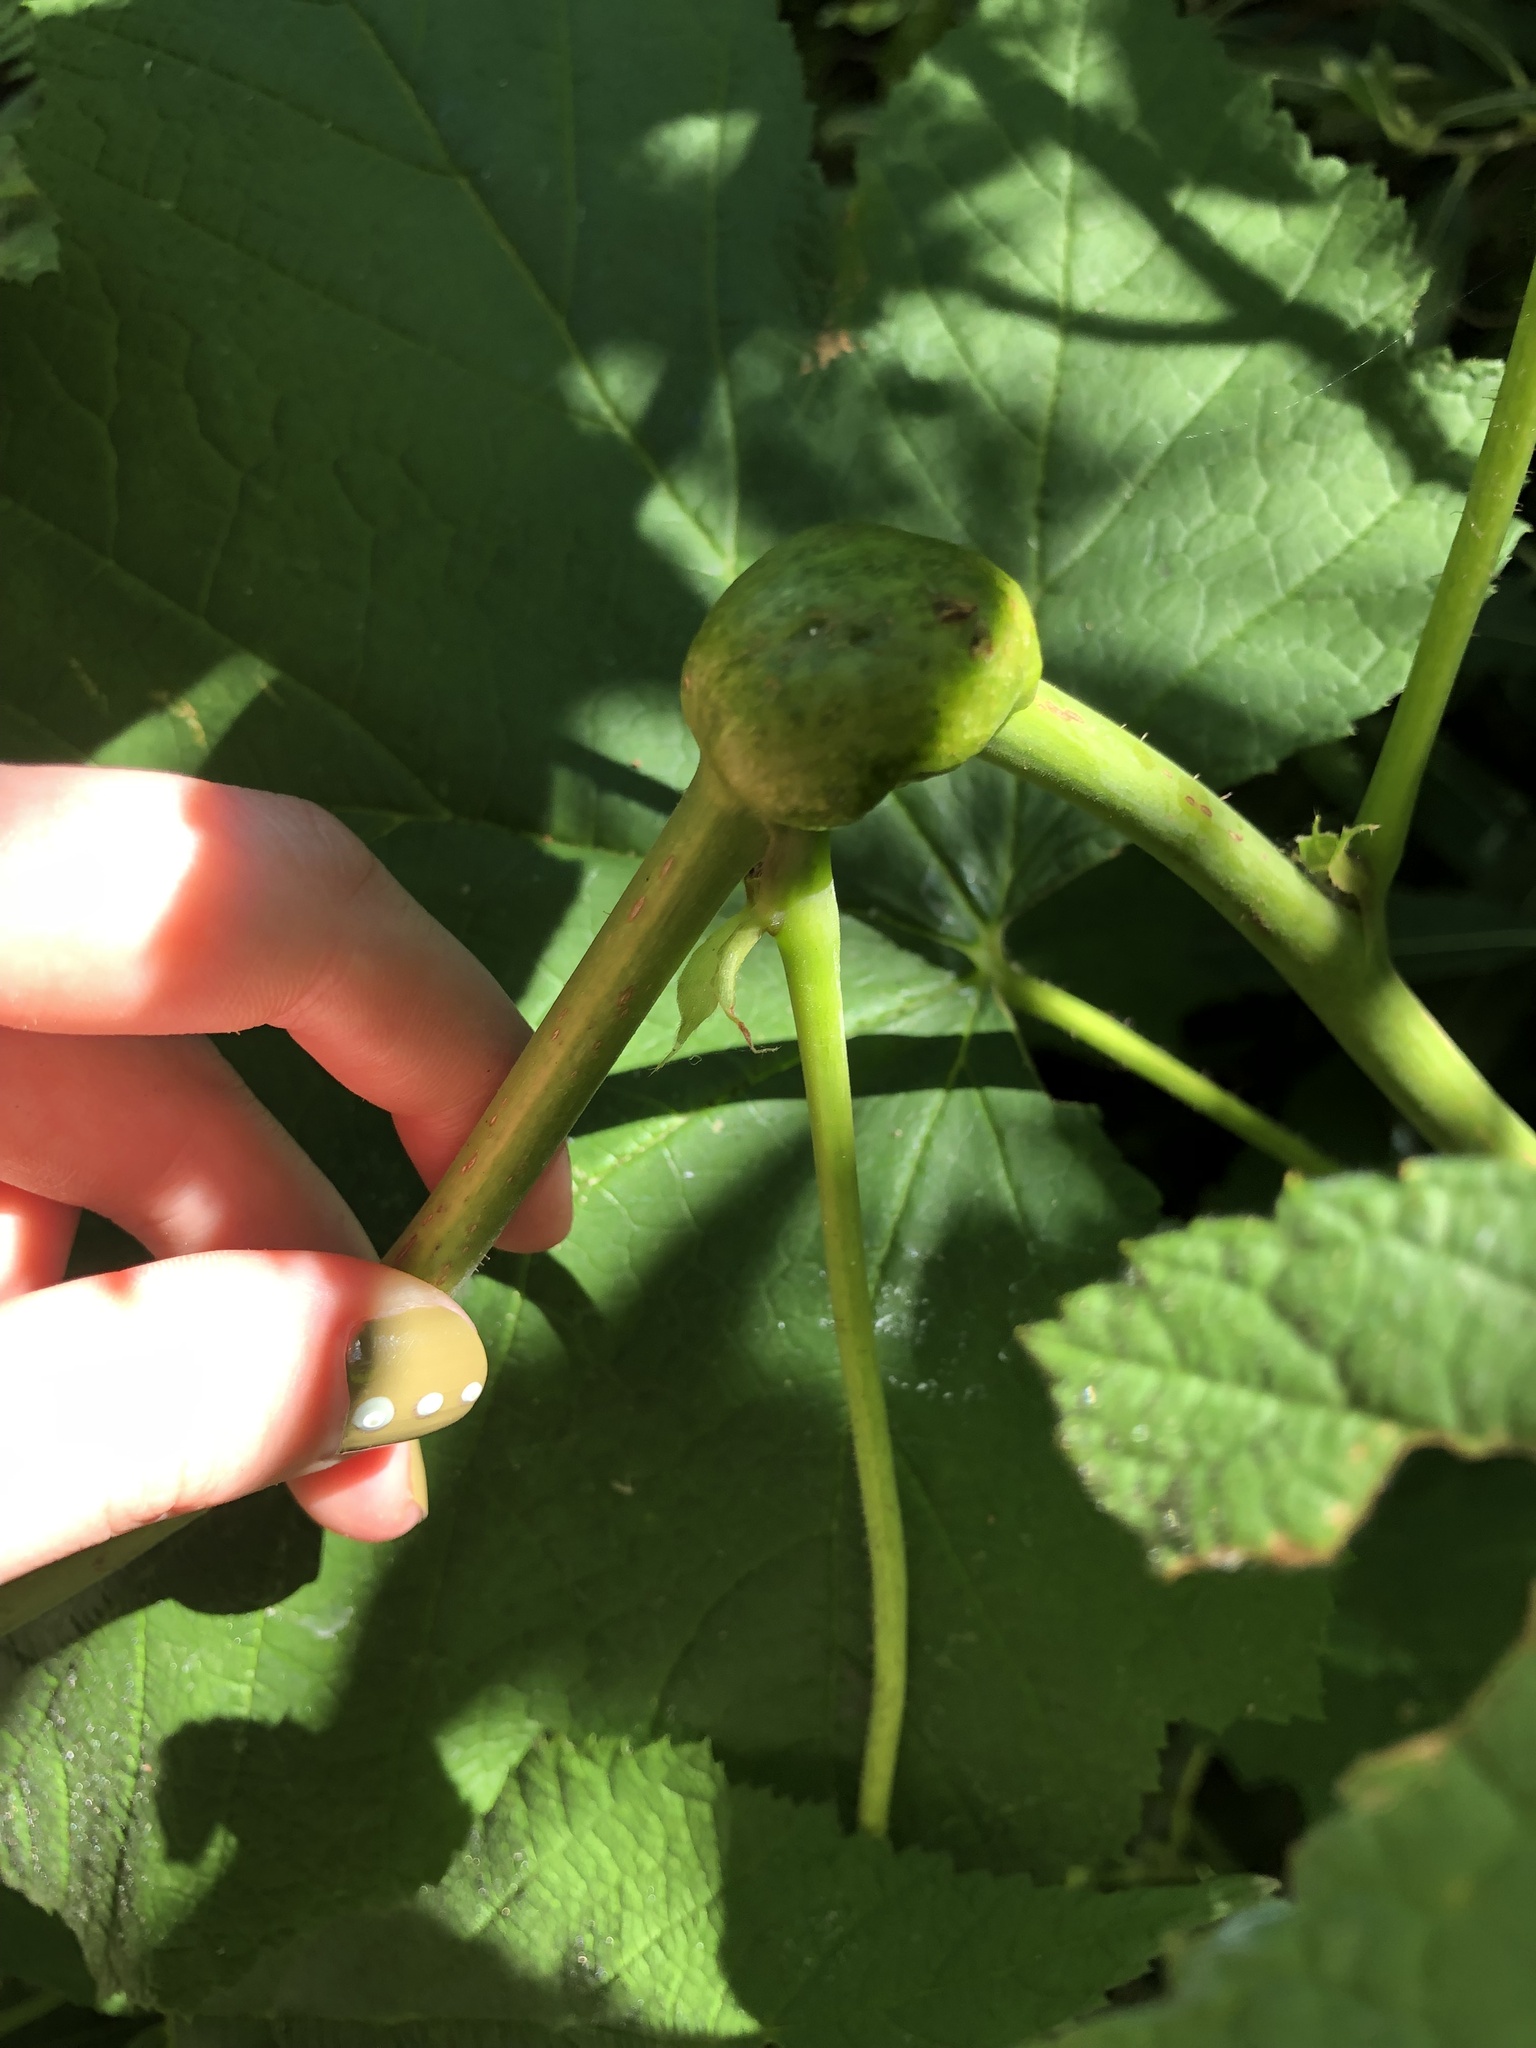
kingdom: Animalia
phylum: Arthropoda
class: Insecta
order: Hymenoptera
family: Cynipidae
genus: Diastrophus
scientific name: Diastrophus
